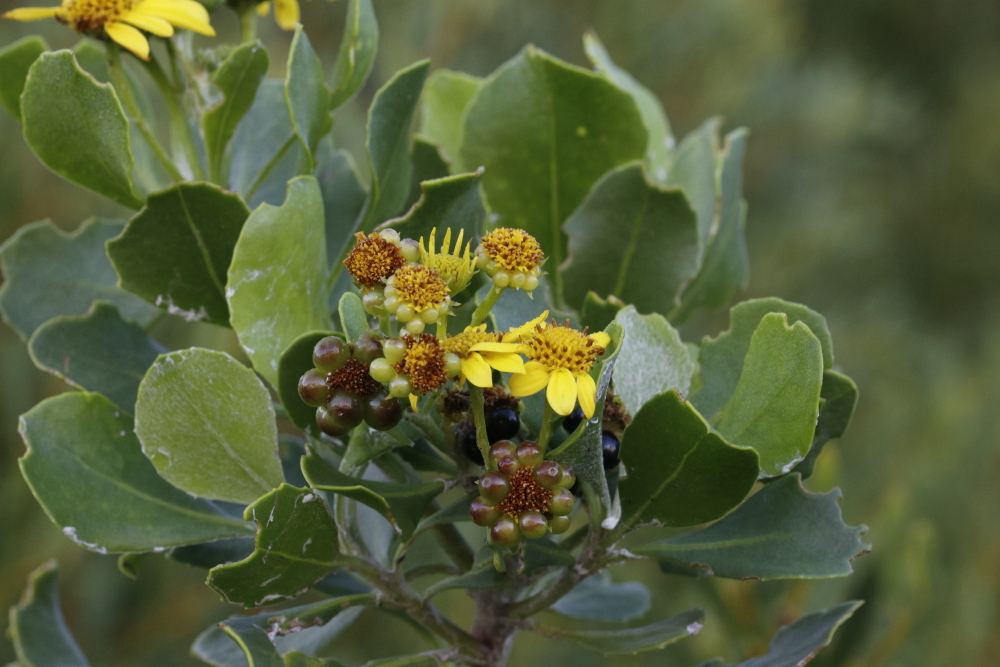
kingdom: Plantae
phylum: Tracheophyta
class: Magnoliopsida
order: Asterales
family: Asteraceae
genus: Osteospermum
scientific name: Osteospermum moniliferum
